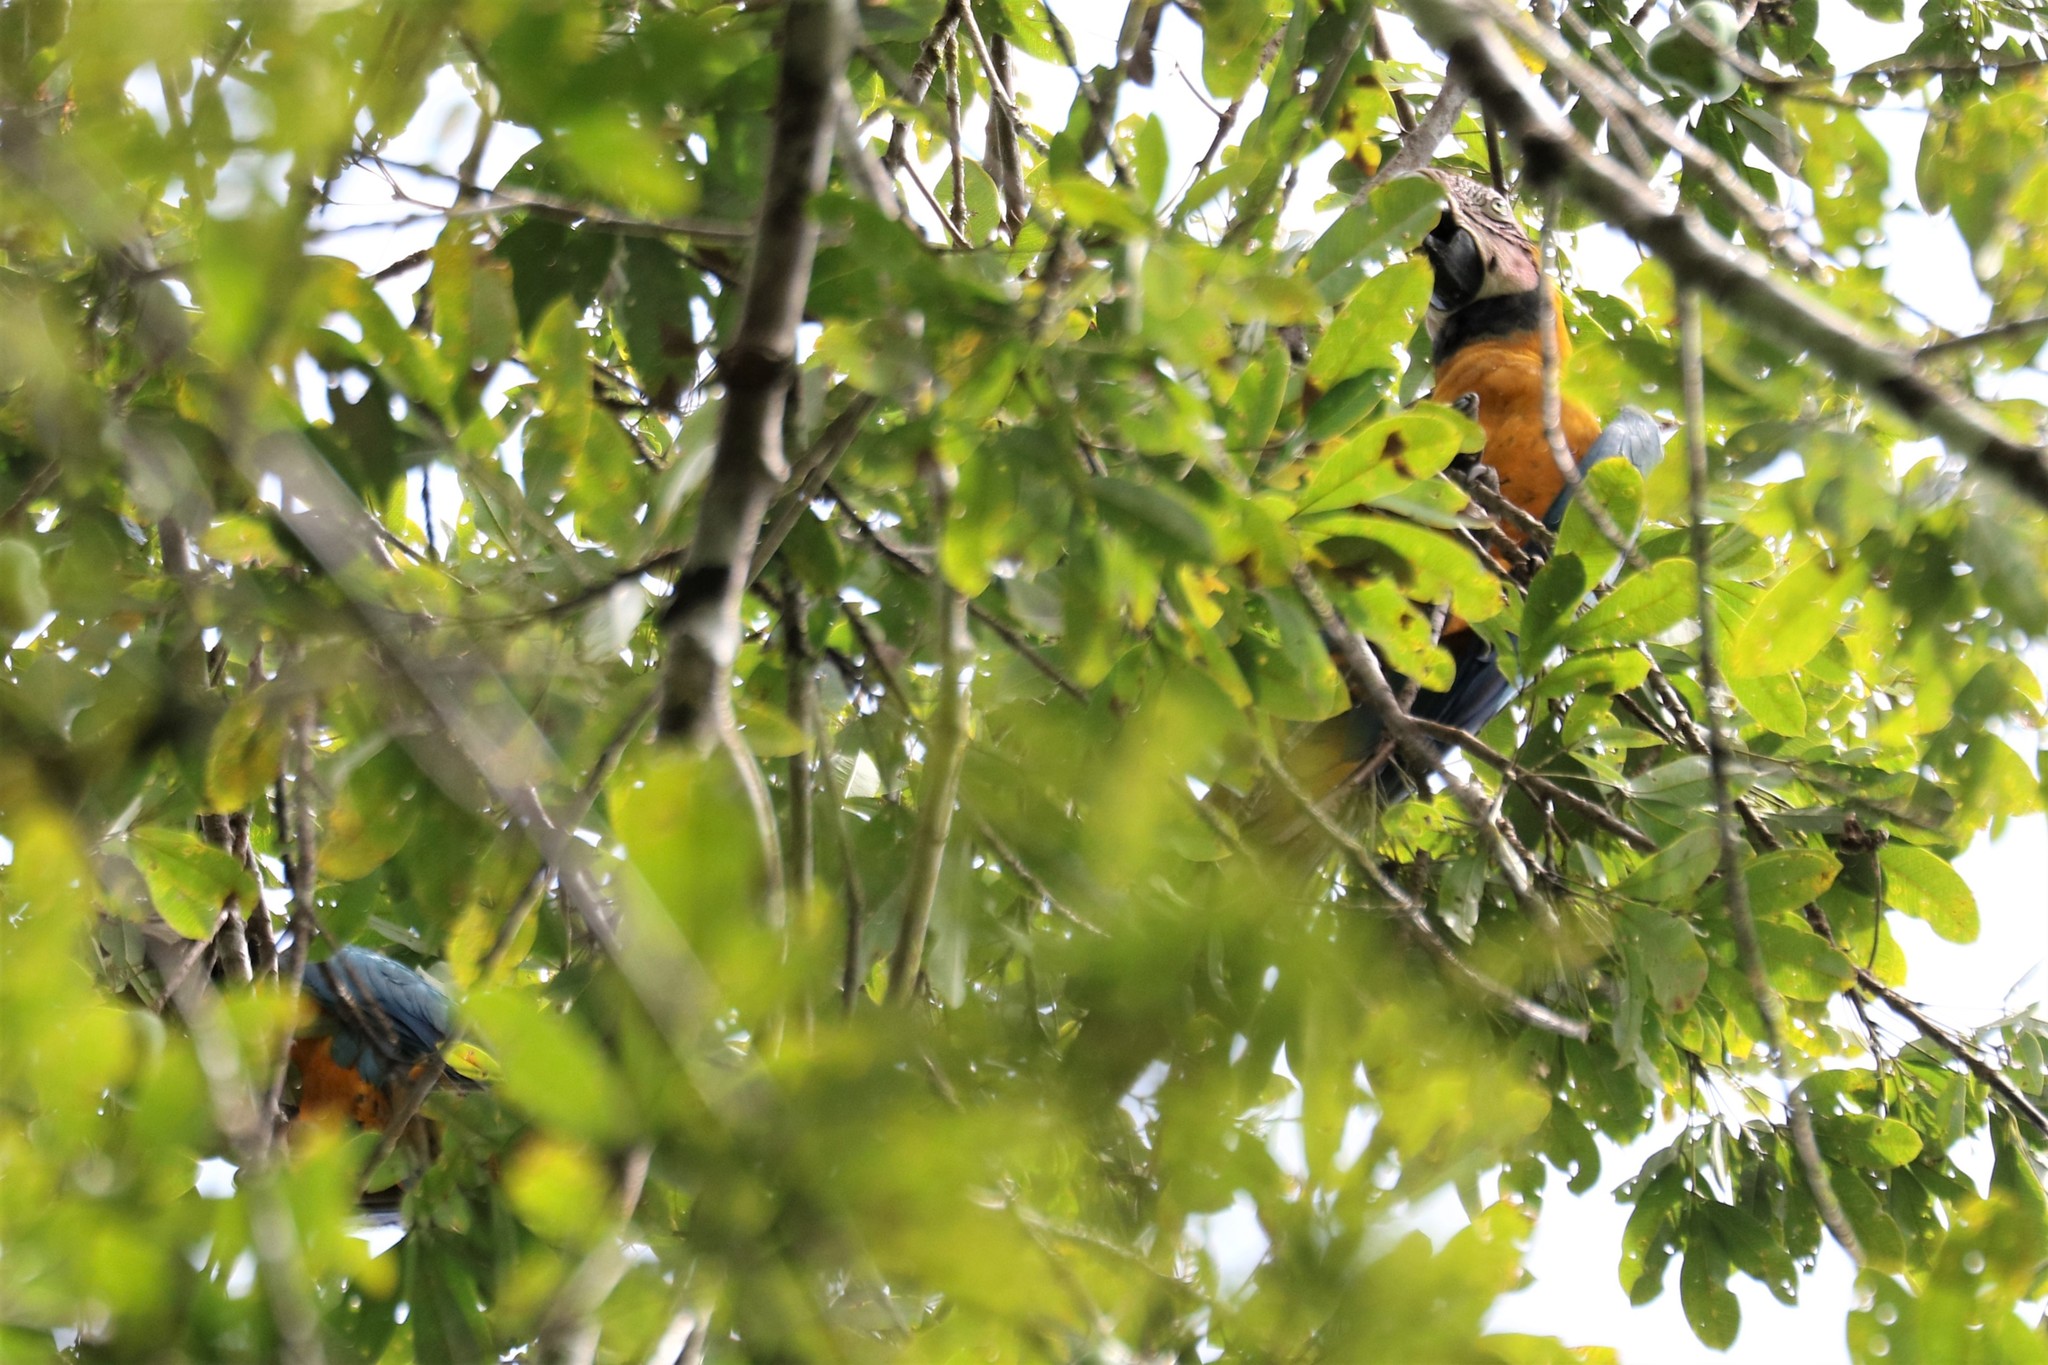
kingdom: Animalia
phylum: Chordata
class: Aves
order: Psittaciformes
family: Psittacidae
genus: Ara
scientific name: Ara ararauna
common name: Blue-and-yellow macaw
